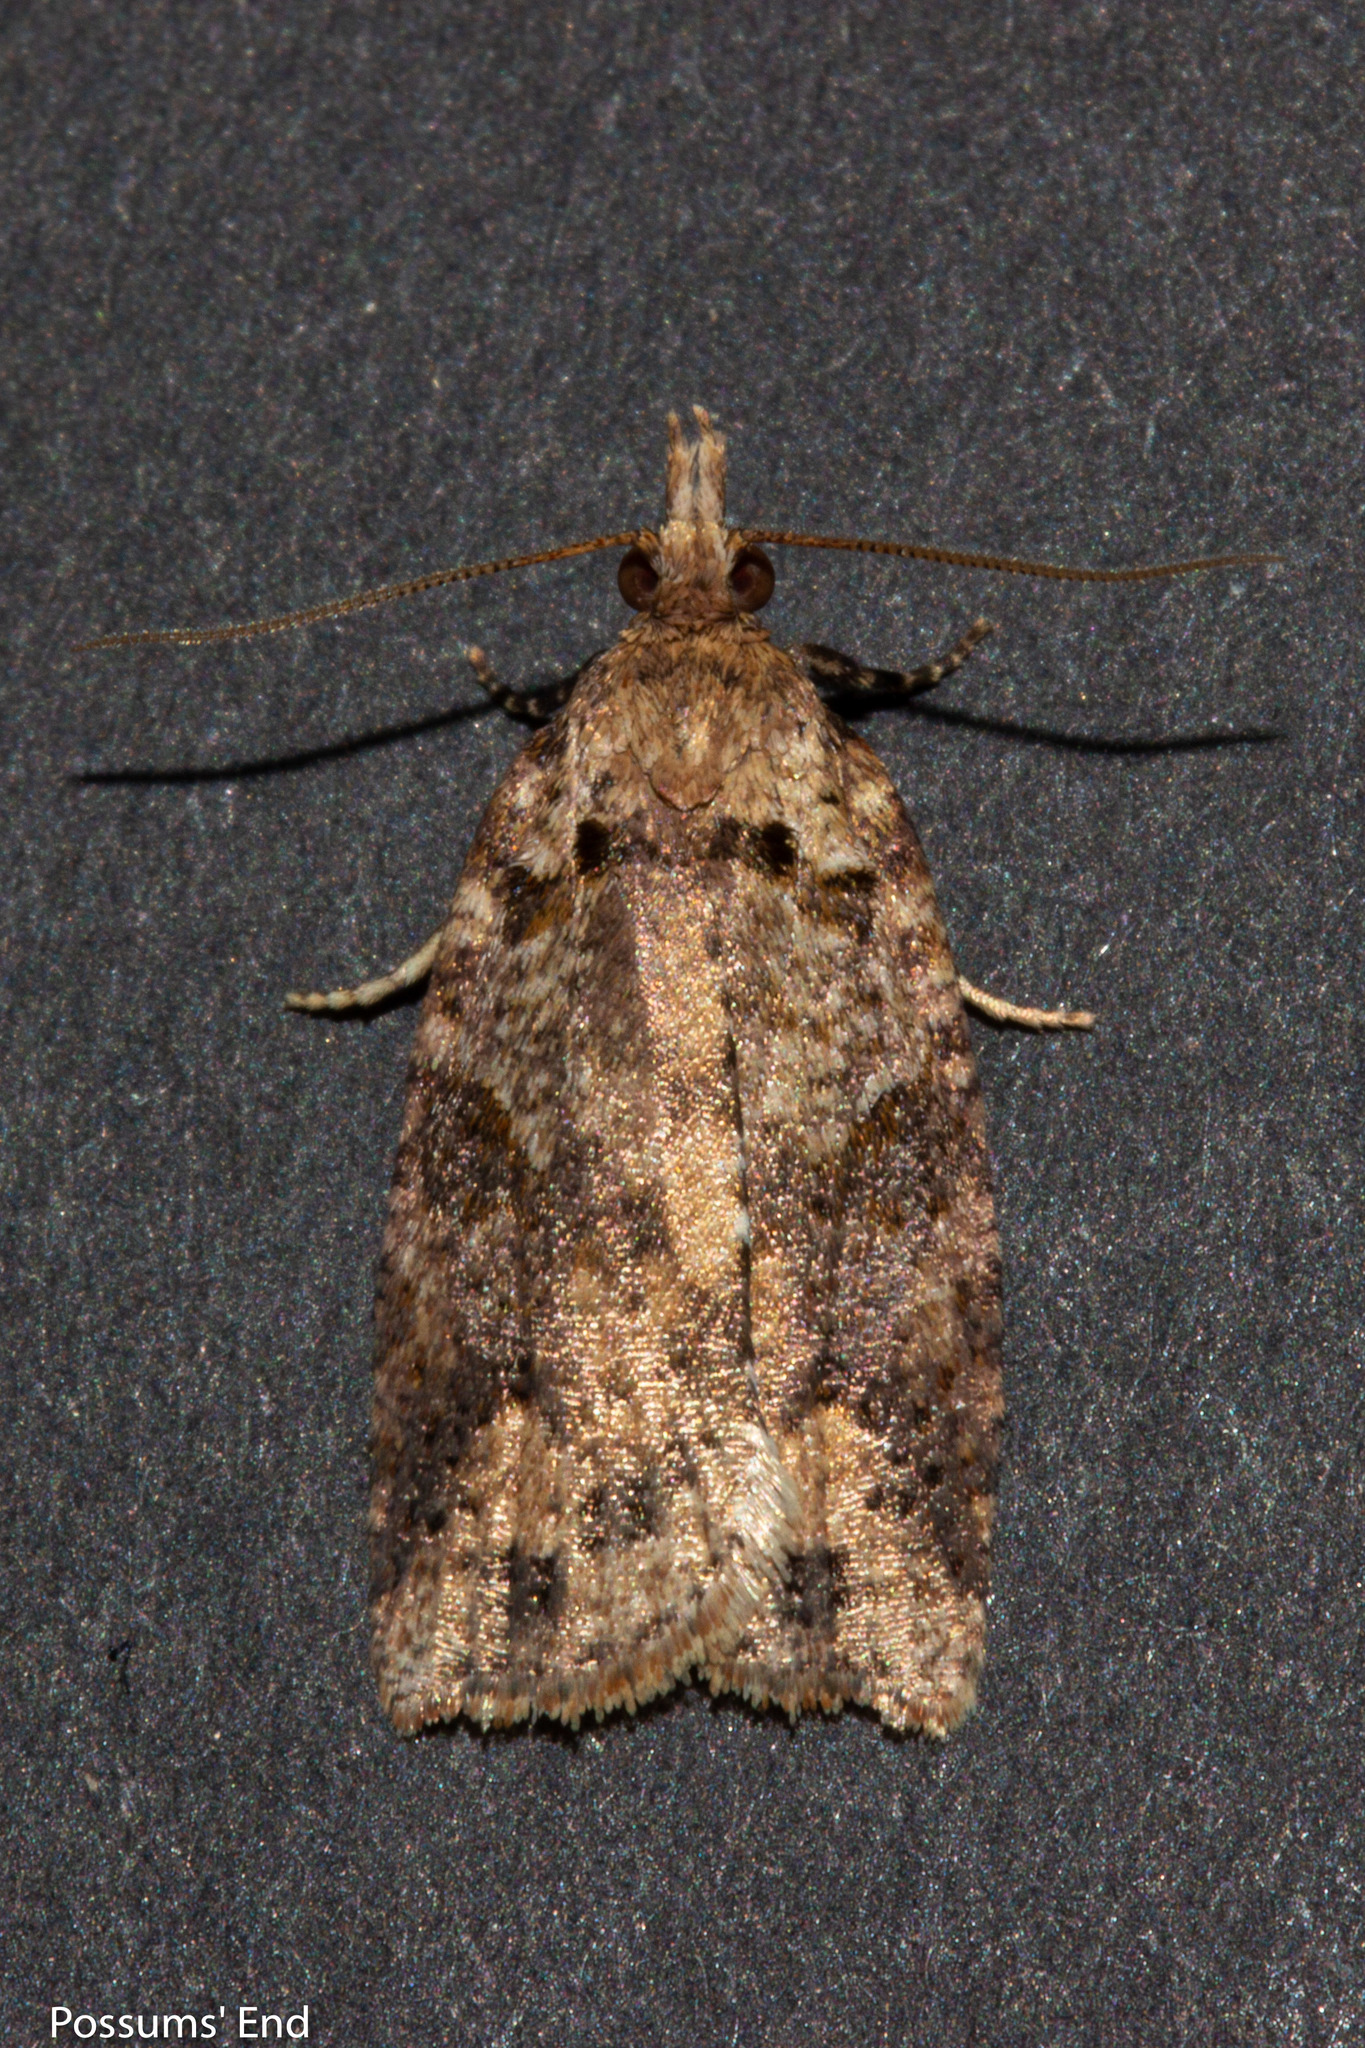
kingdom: Animalia
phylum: Arthropoda
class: Insecta
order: Lepidoptera
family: Tortricidae
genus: Ctenopseustis
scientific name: Ctenopseustis obliquana
